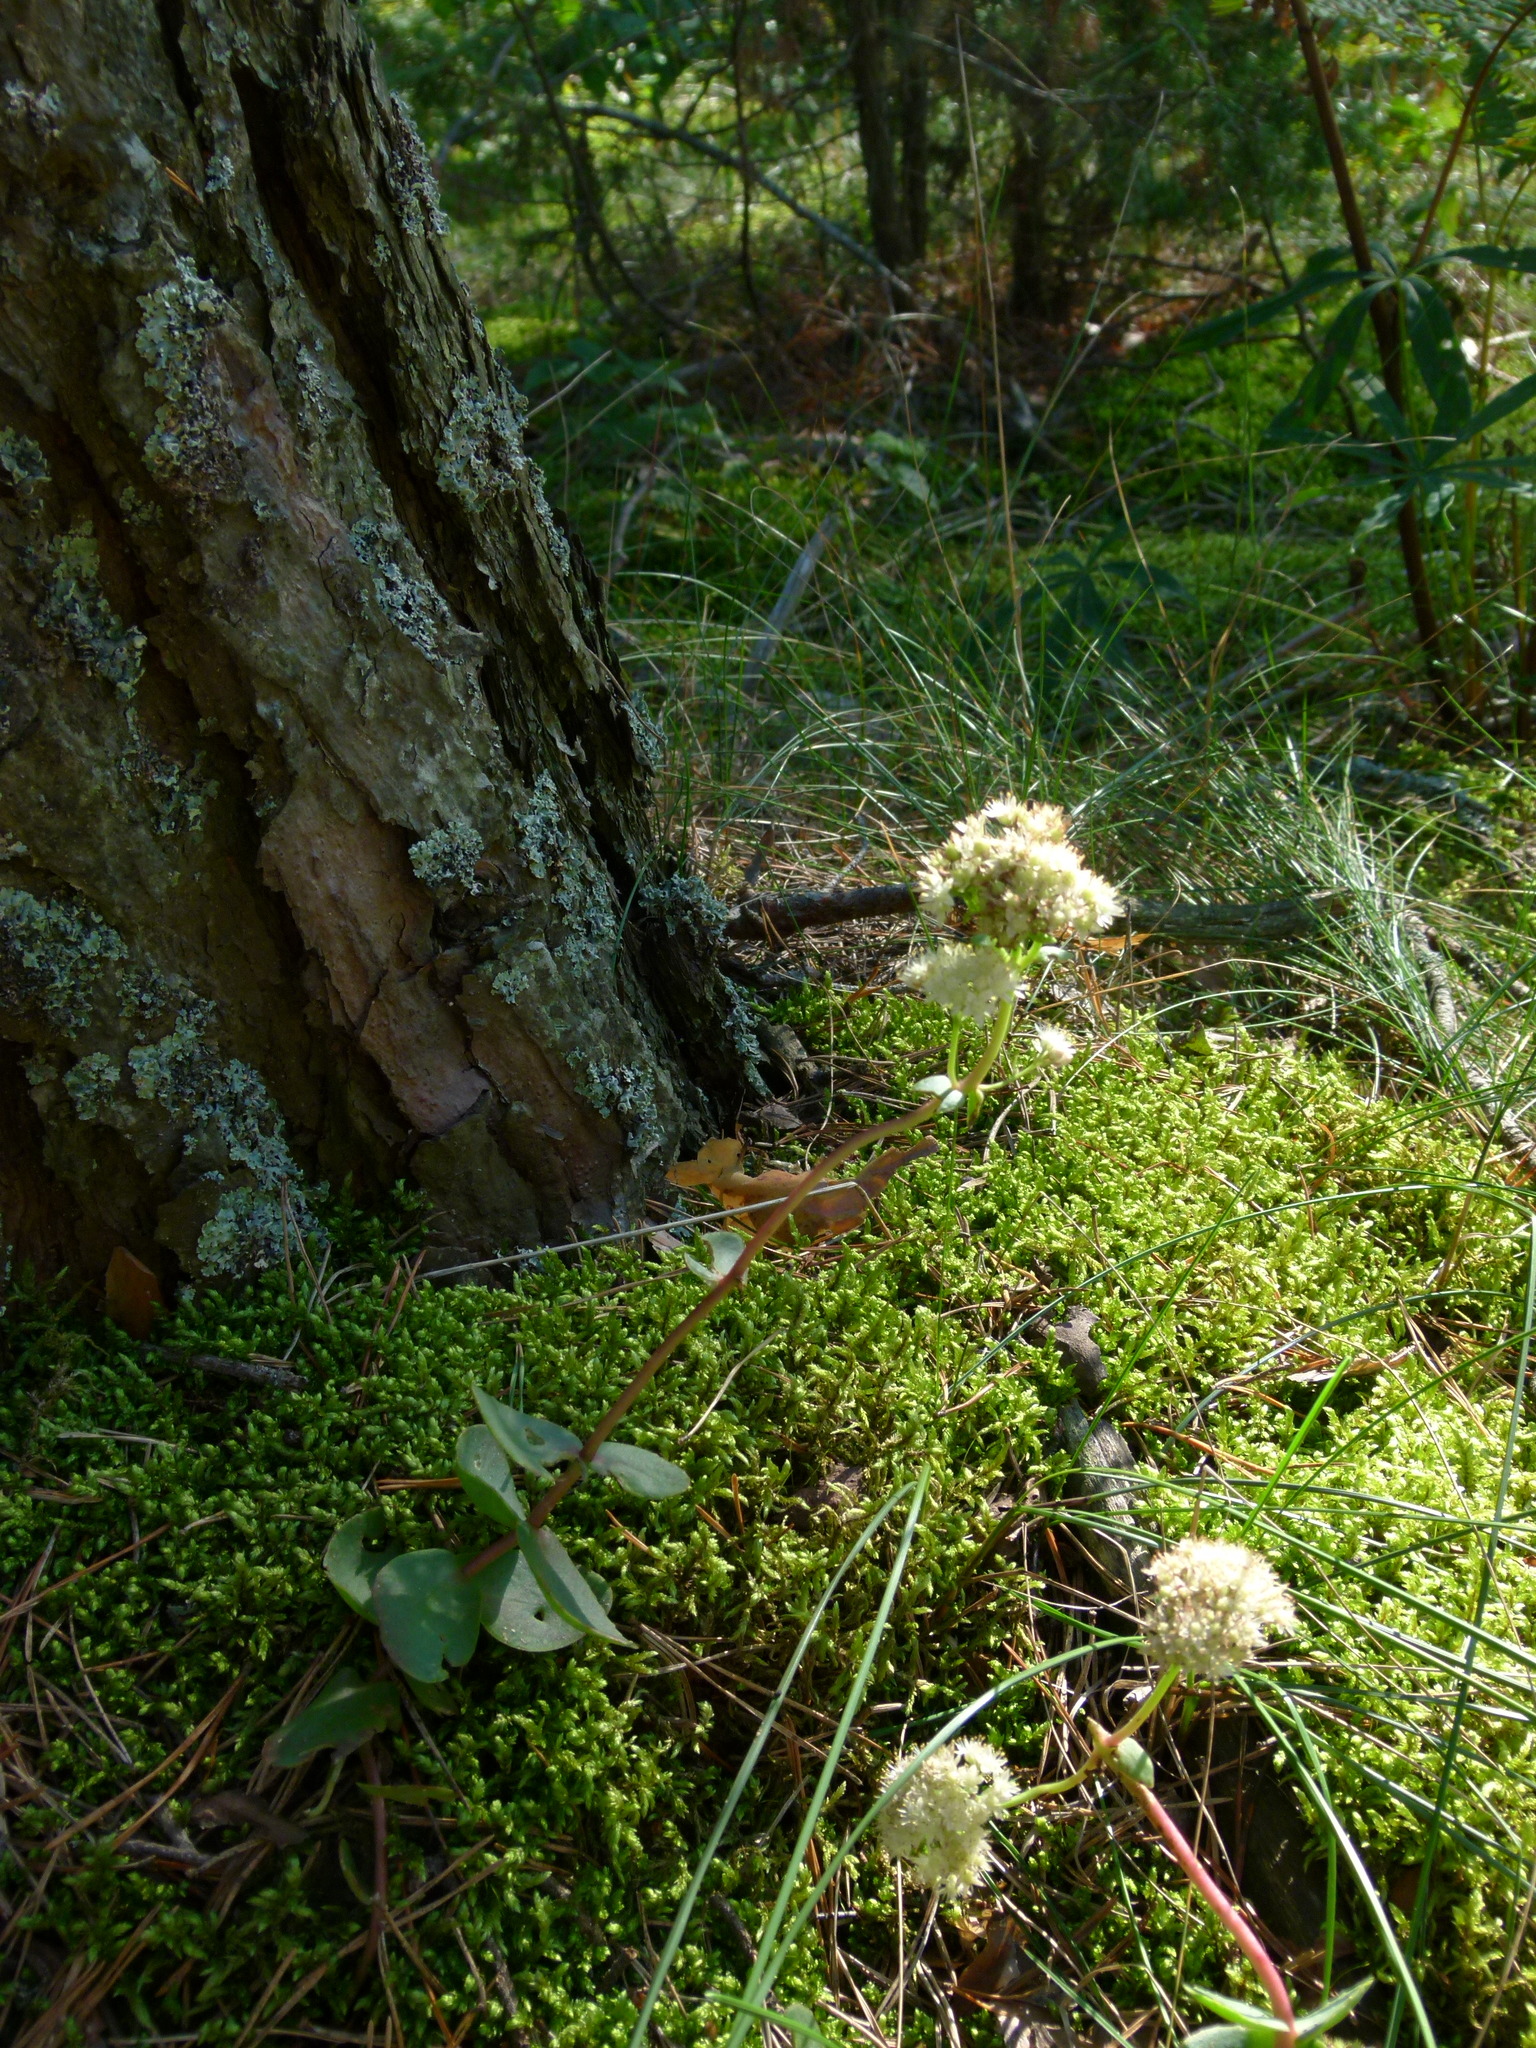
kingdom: Plantae
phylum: Tracheophyta
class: Magnoliopsida
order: Saxifragales
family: Crassulaceae
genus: Hylotelephium
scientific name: Hylotelephium maximum
